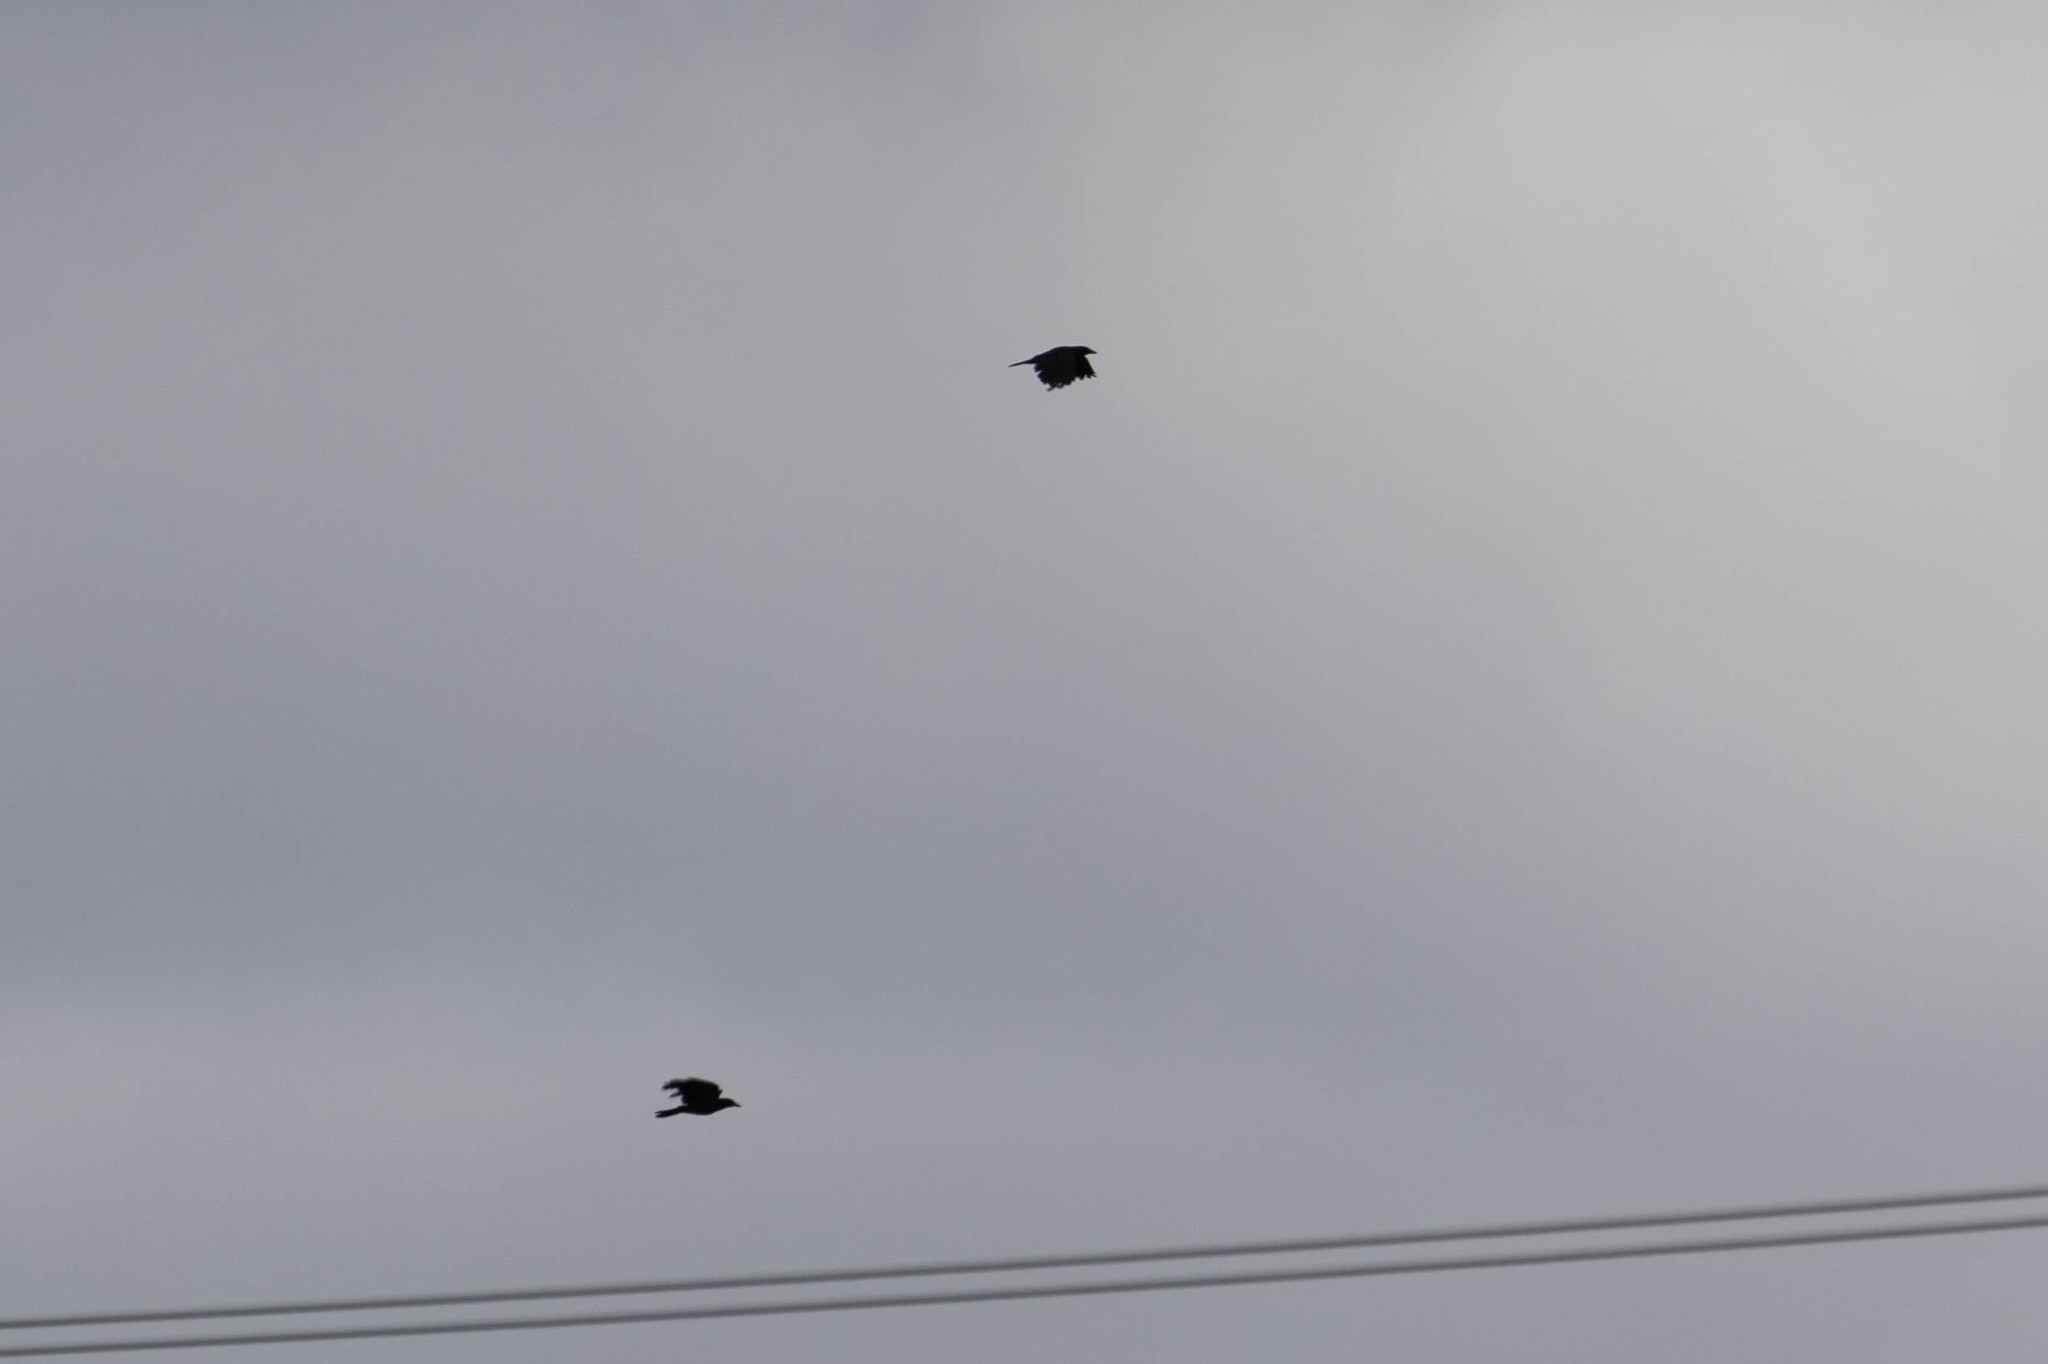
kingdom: Animalia
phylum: Chordata
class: Aves
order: Passeriformes
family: Corvidae
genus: Corvus
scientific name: Corvus brachyrhynchos
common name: American crow
